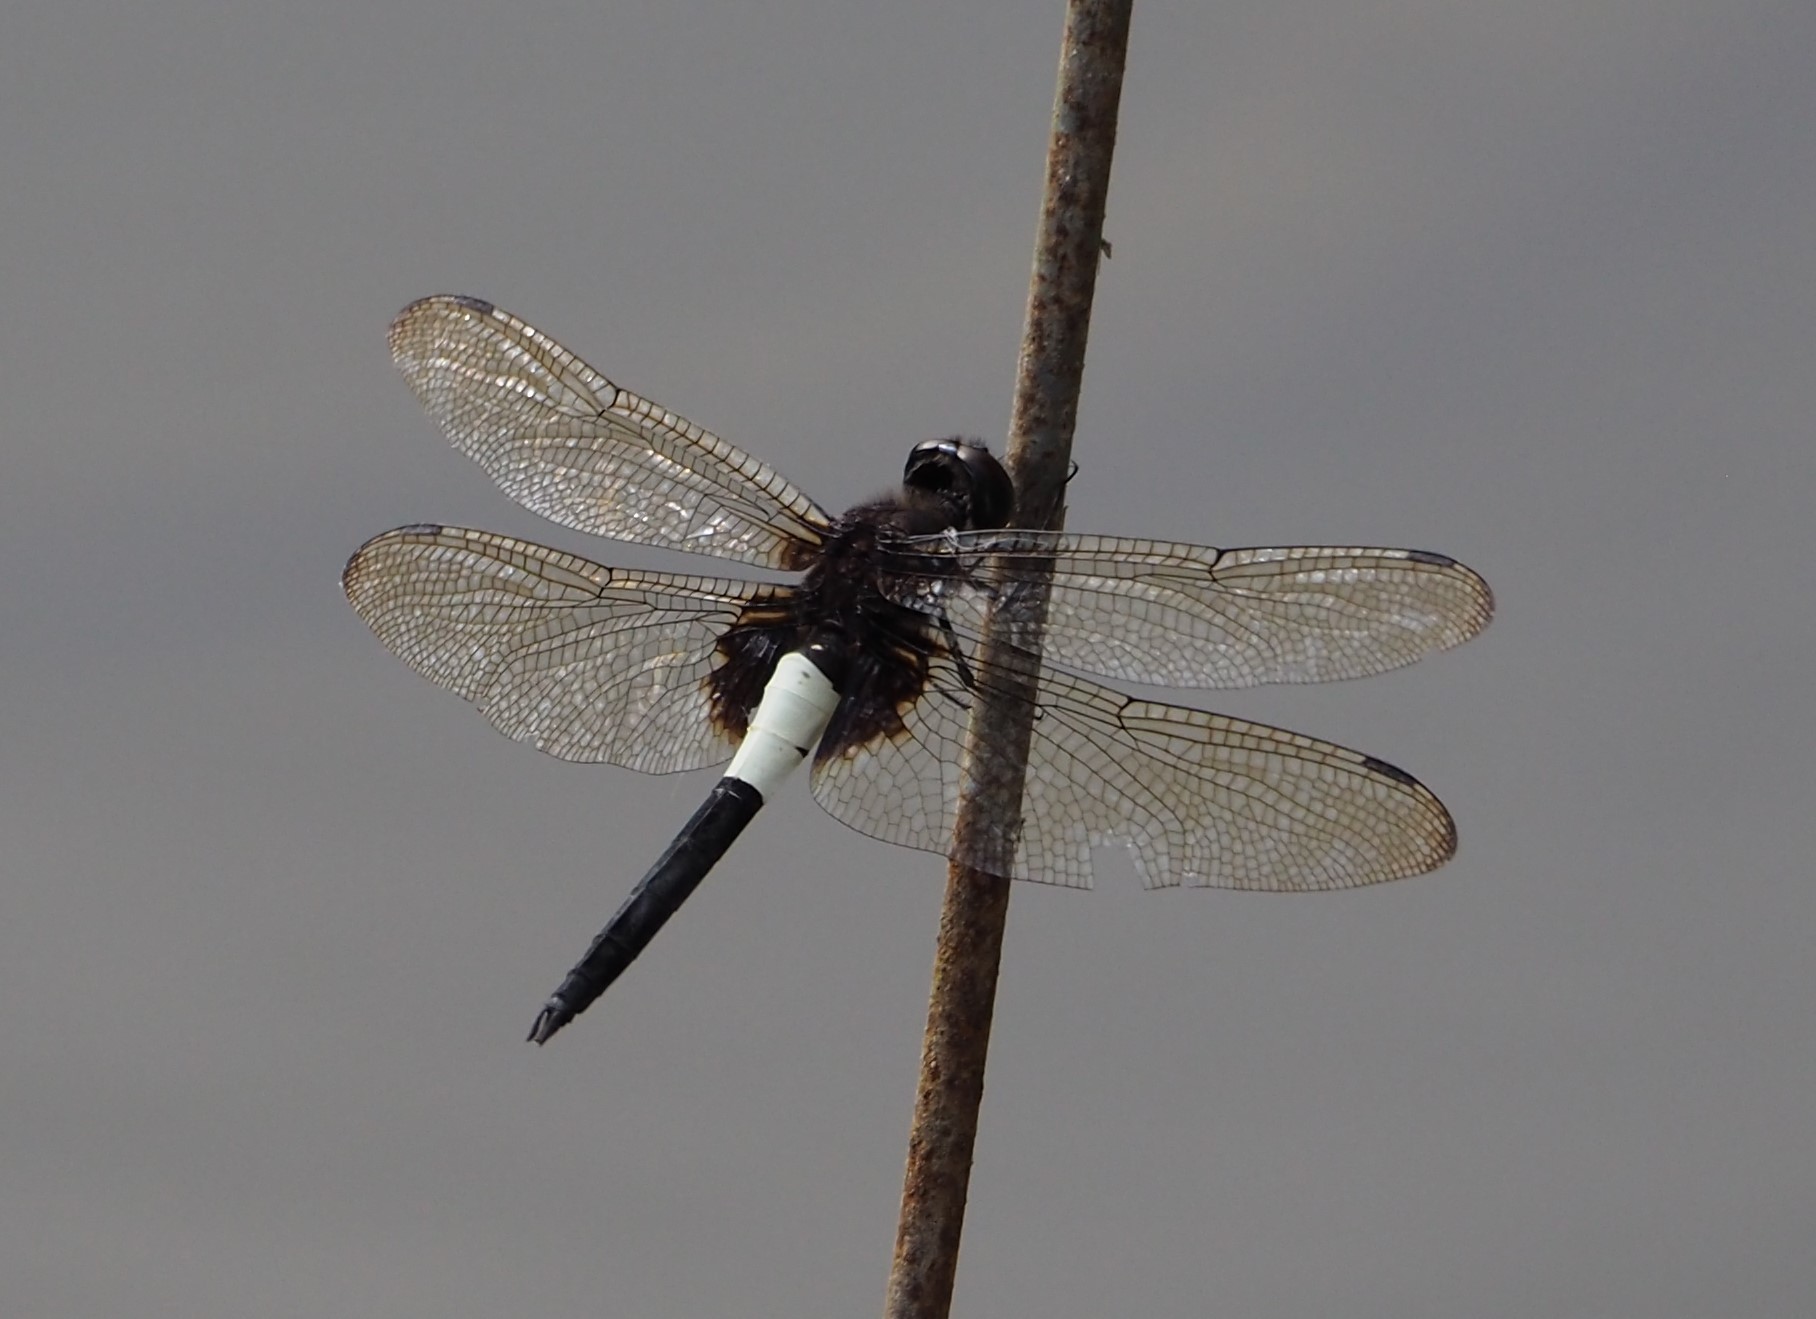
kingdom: Animalia
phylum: Arthropoda
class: Insecta
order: Odonata
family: Libellulidae
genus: Pseudothemis
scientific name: Pseudothemis zonata
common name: Pied skimmer
